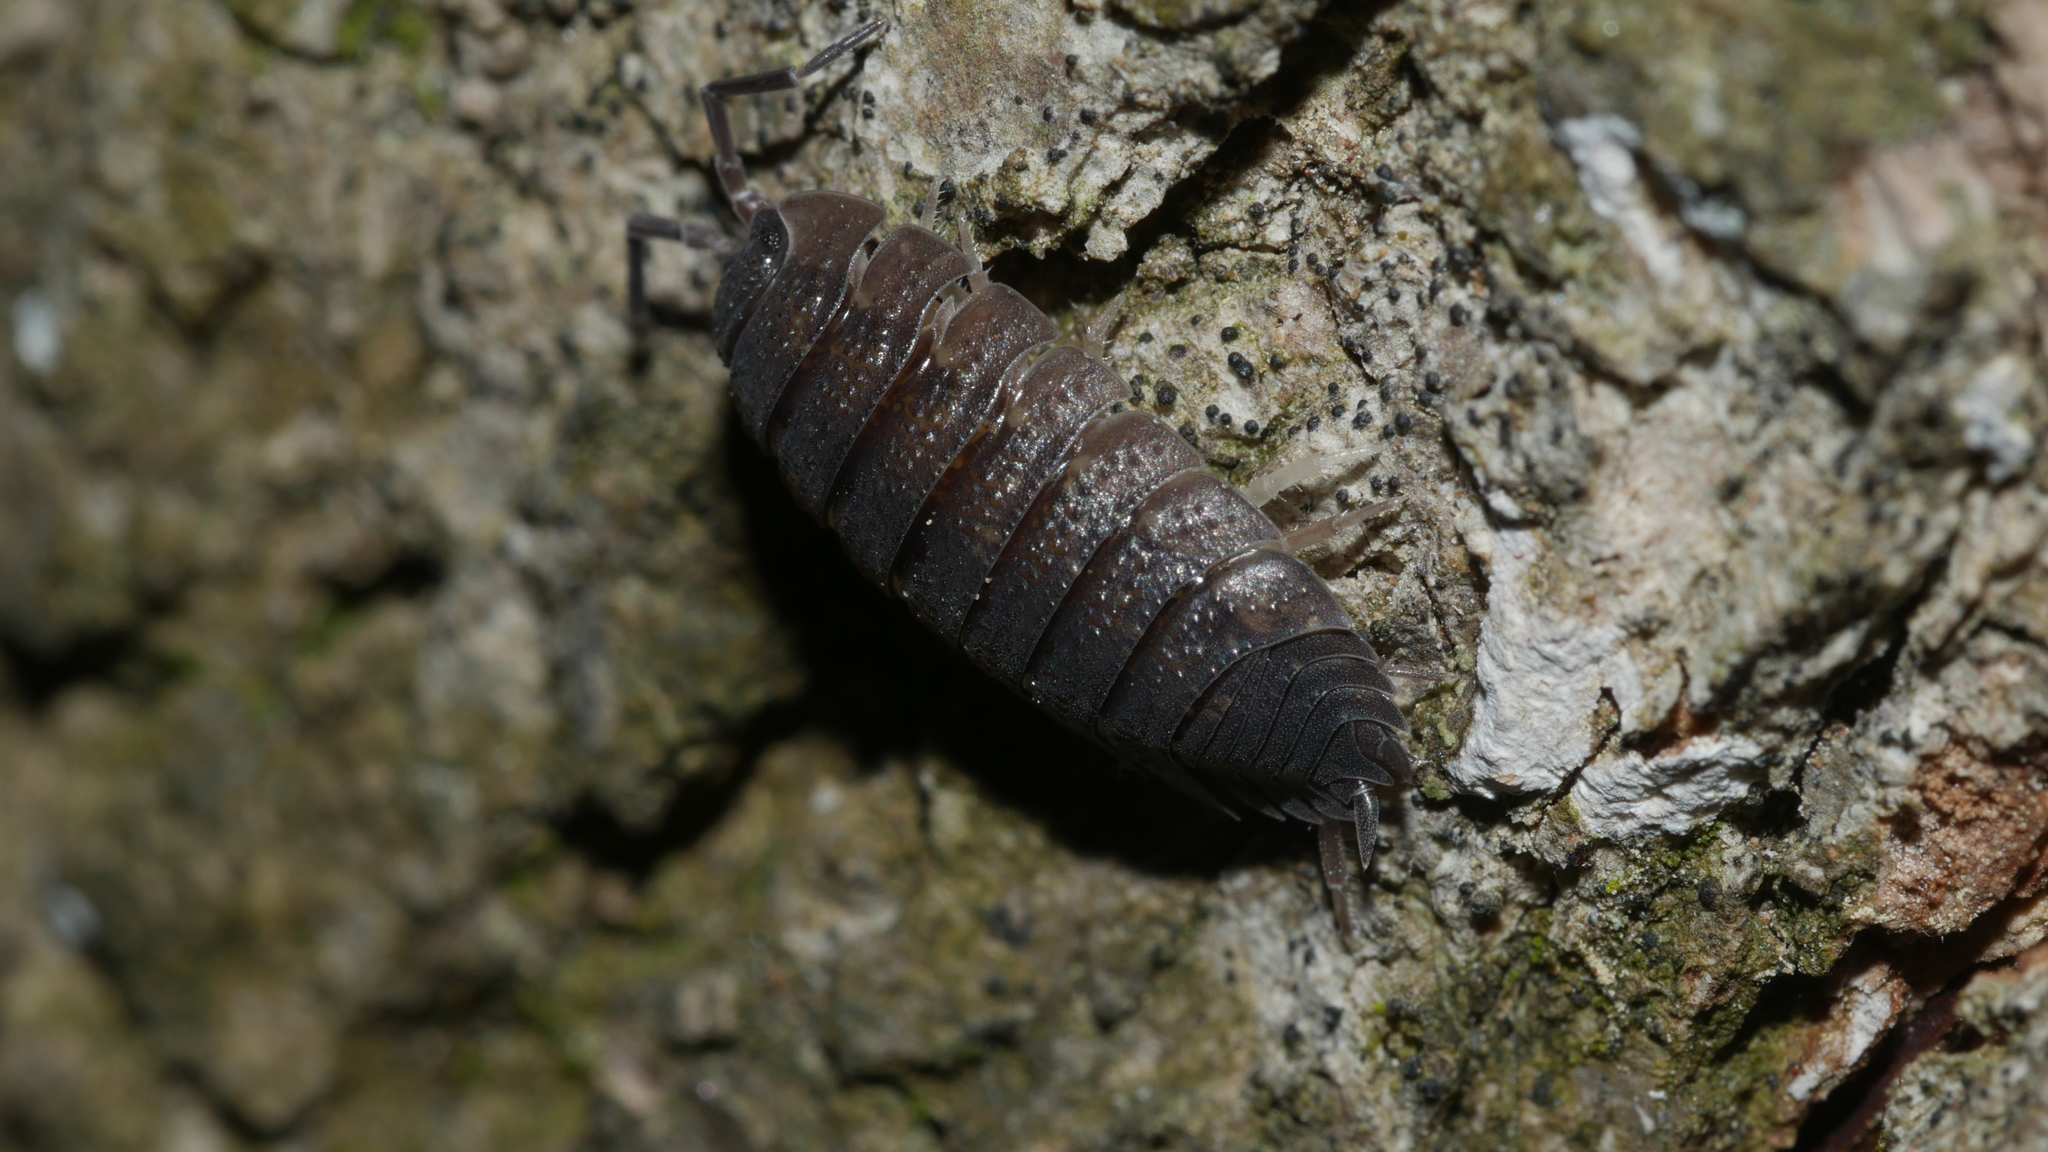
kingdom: Animalia
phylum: Arthropoda
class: Malacostraca
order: Isopoda
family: Porcellionidae
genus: Porcellio
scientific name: Porcellio scaber
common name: Common rough woodlouse
